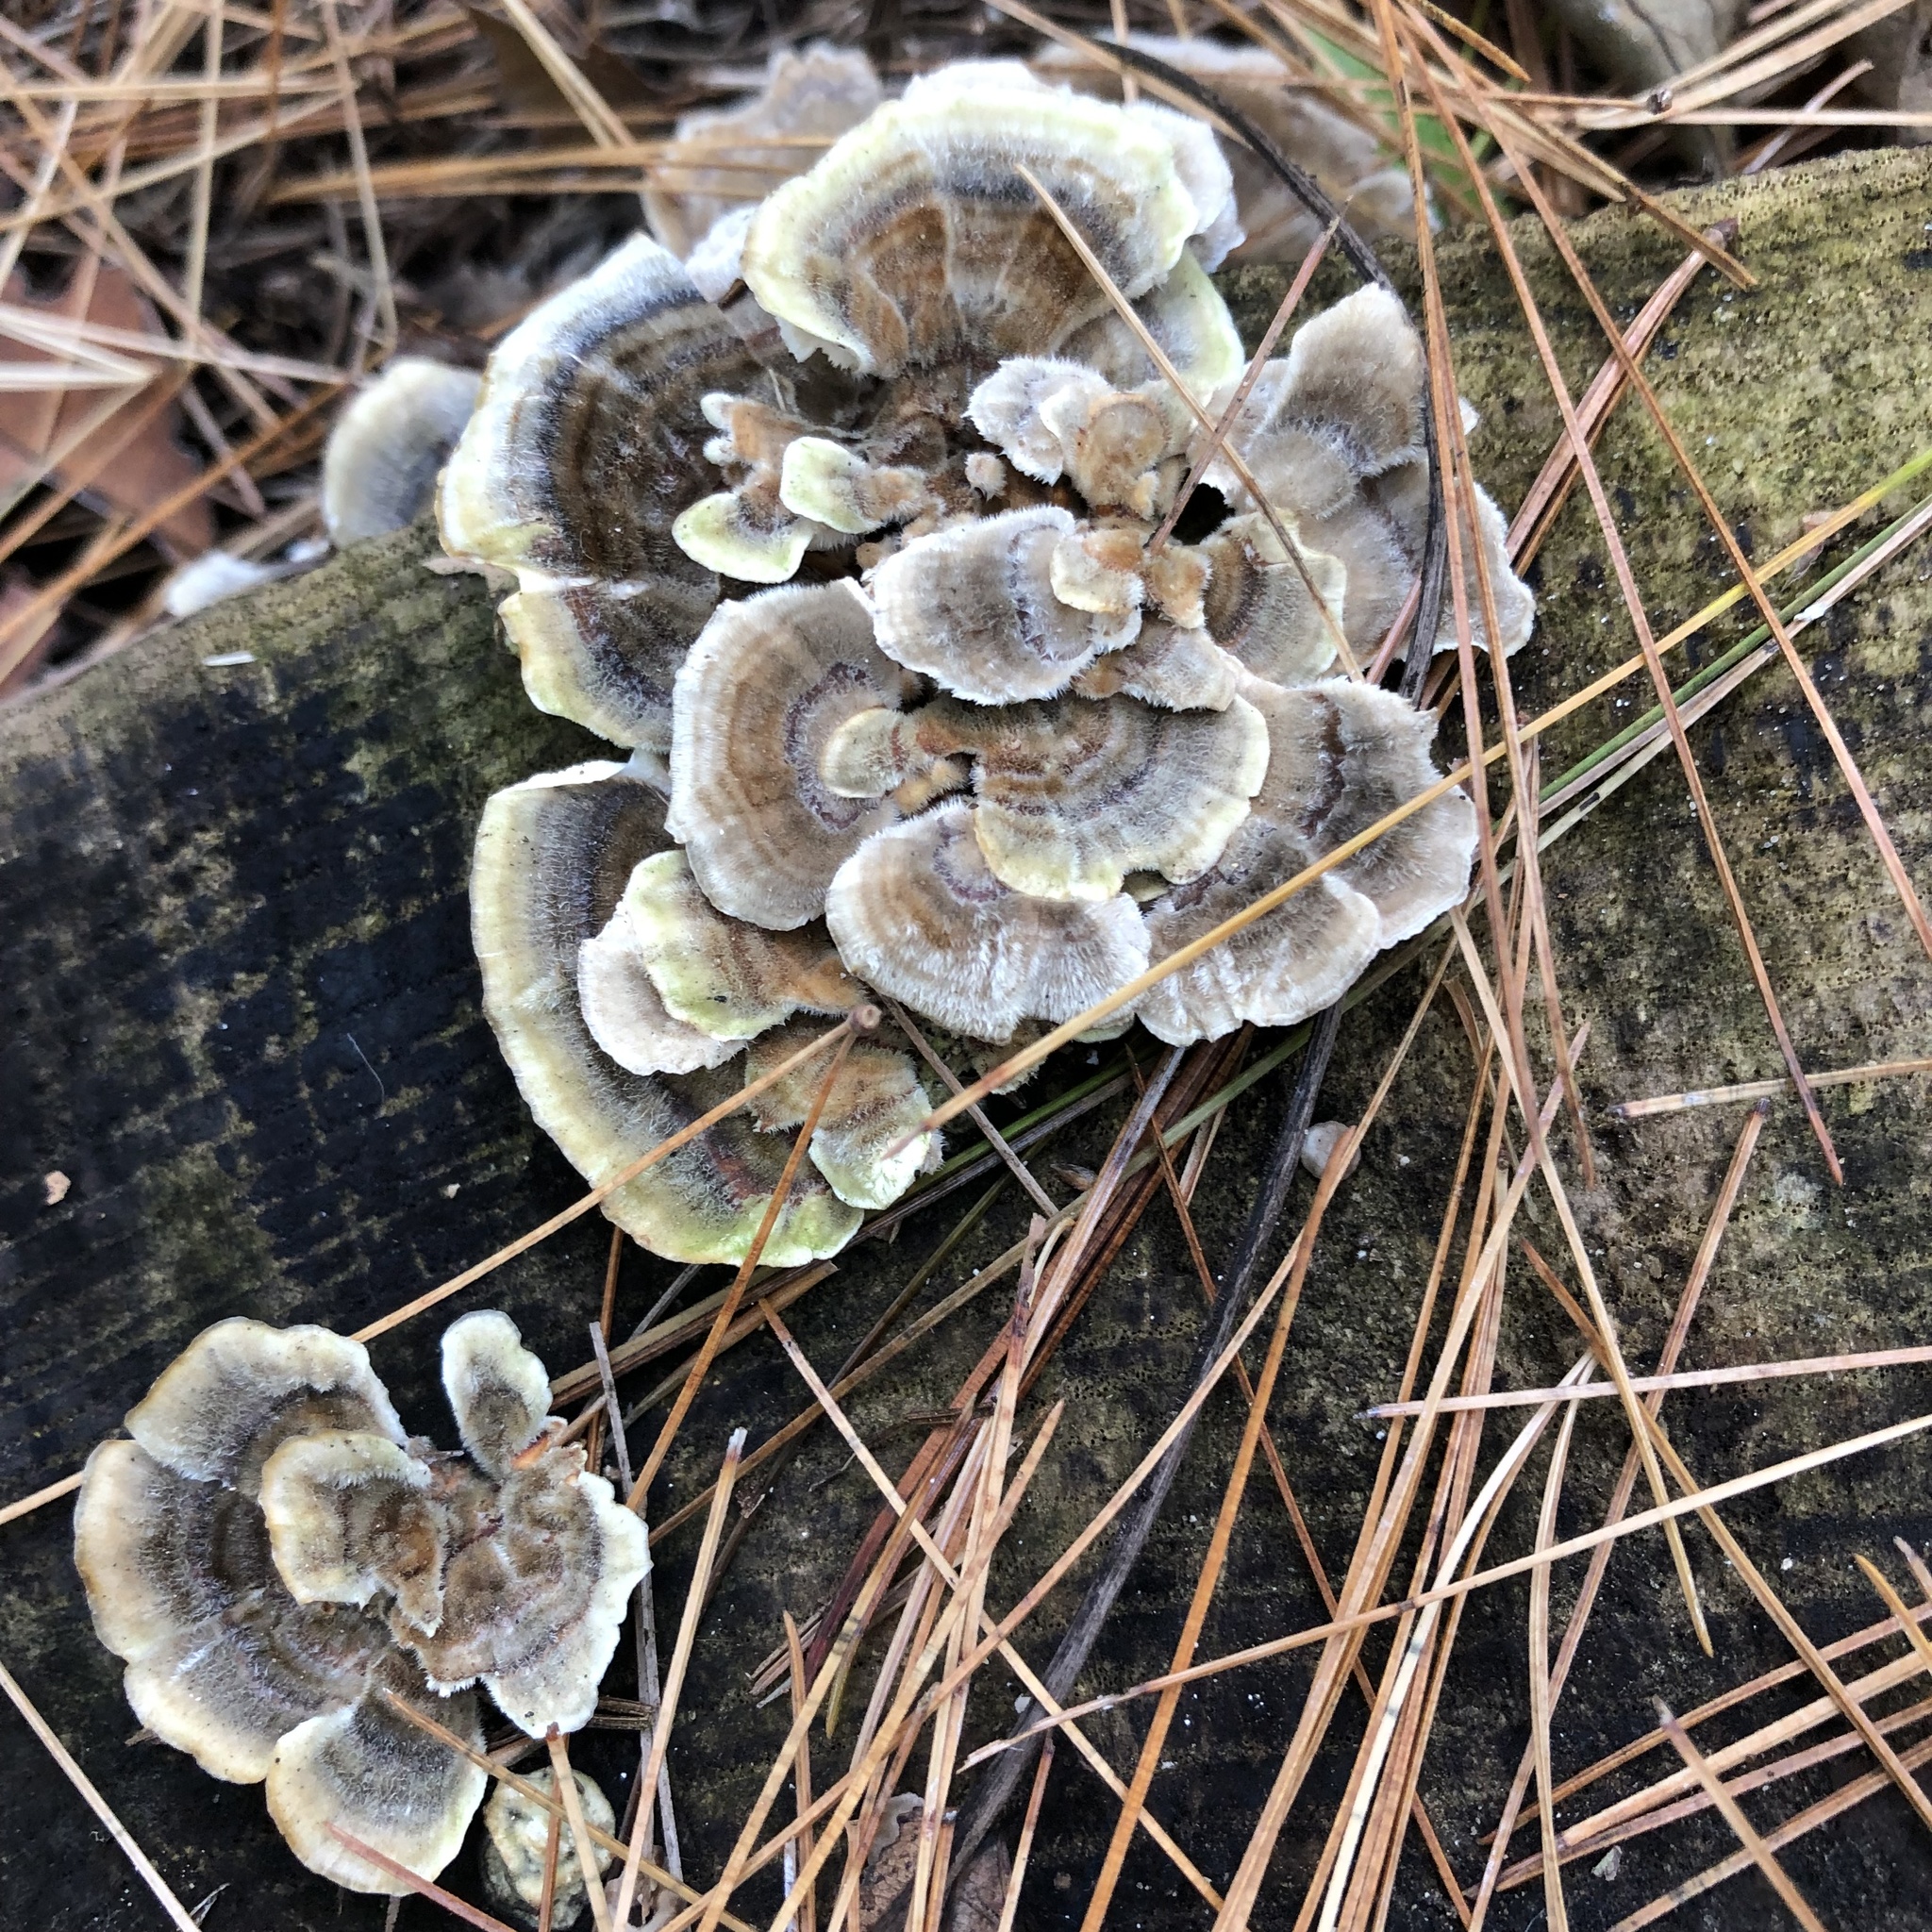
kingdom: Fungi
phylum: Basidiomycota
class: Agaricomycetes
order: Polyporales
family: Polyporaceae
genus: Trametes
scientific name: Trametes versicolor
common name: Turkeytail
